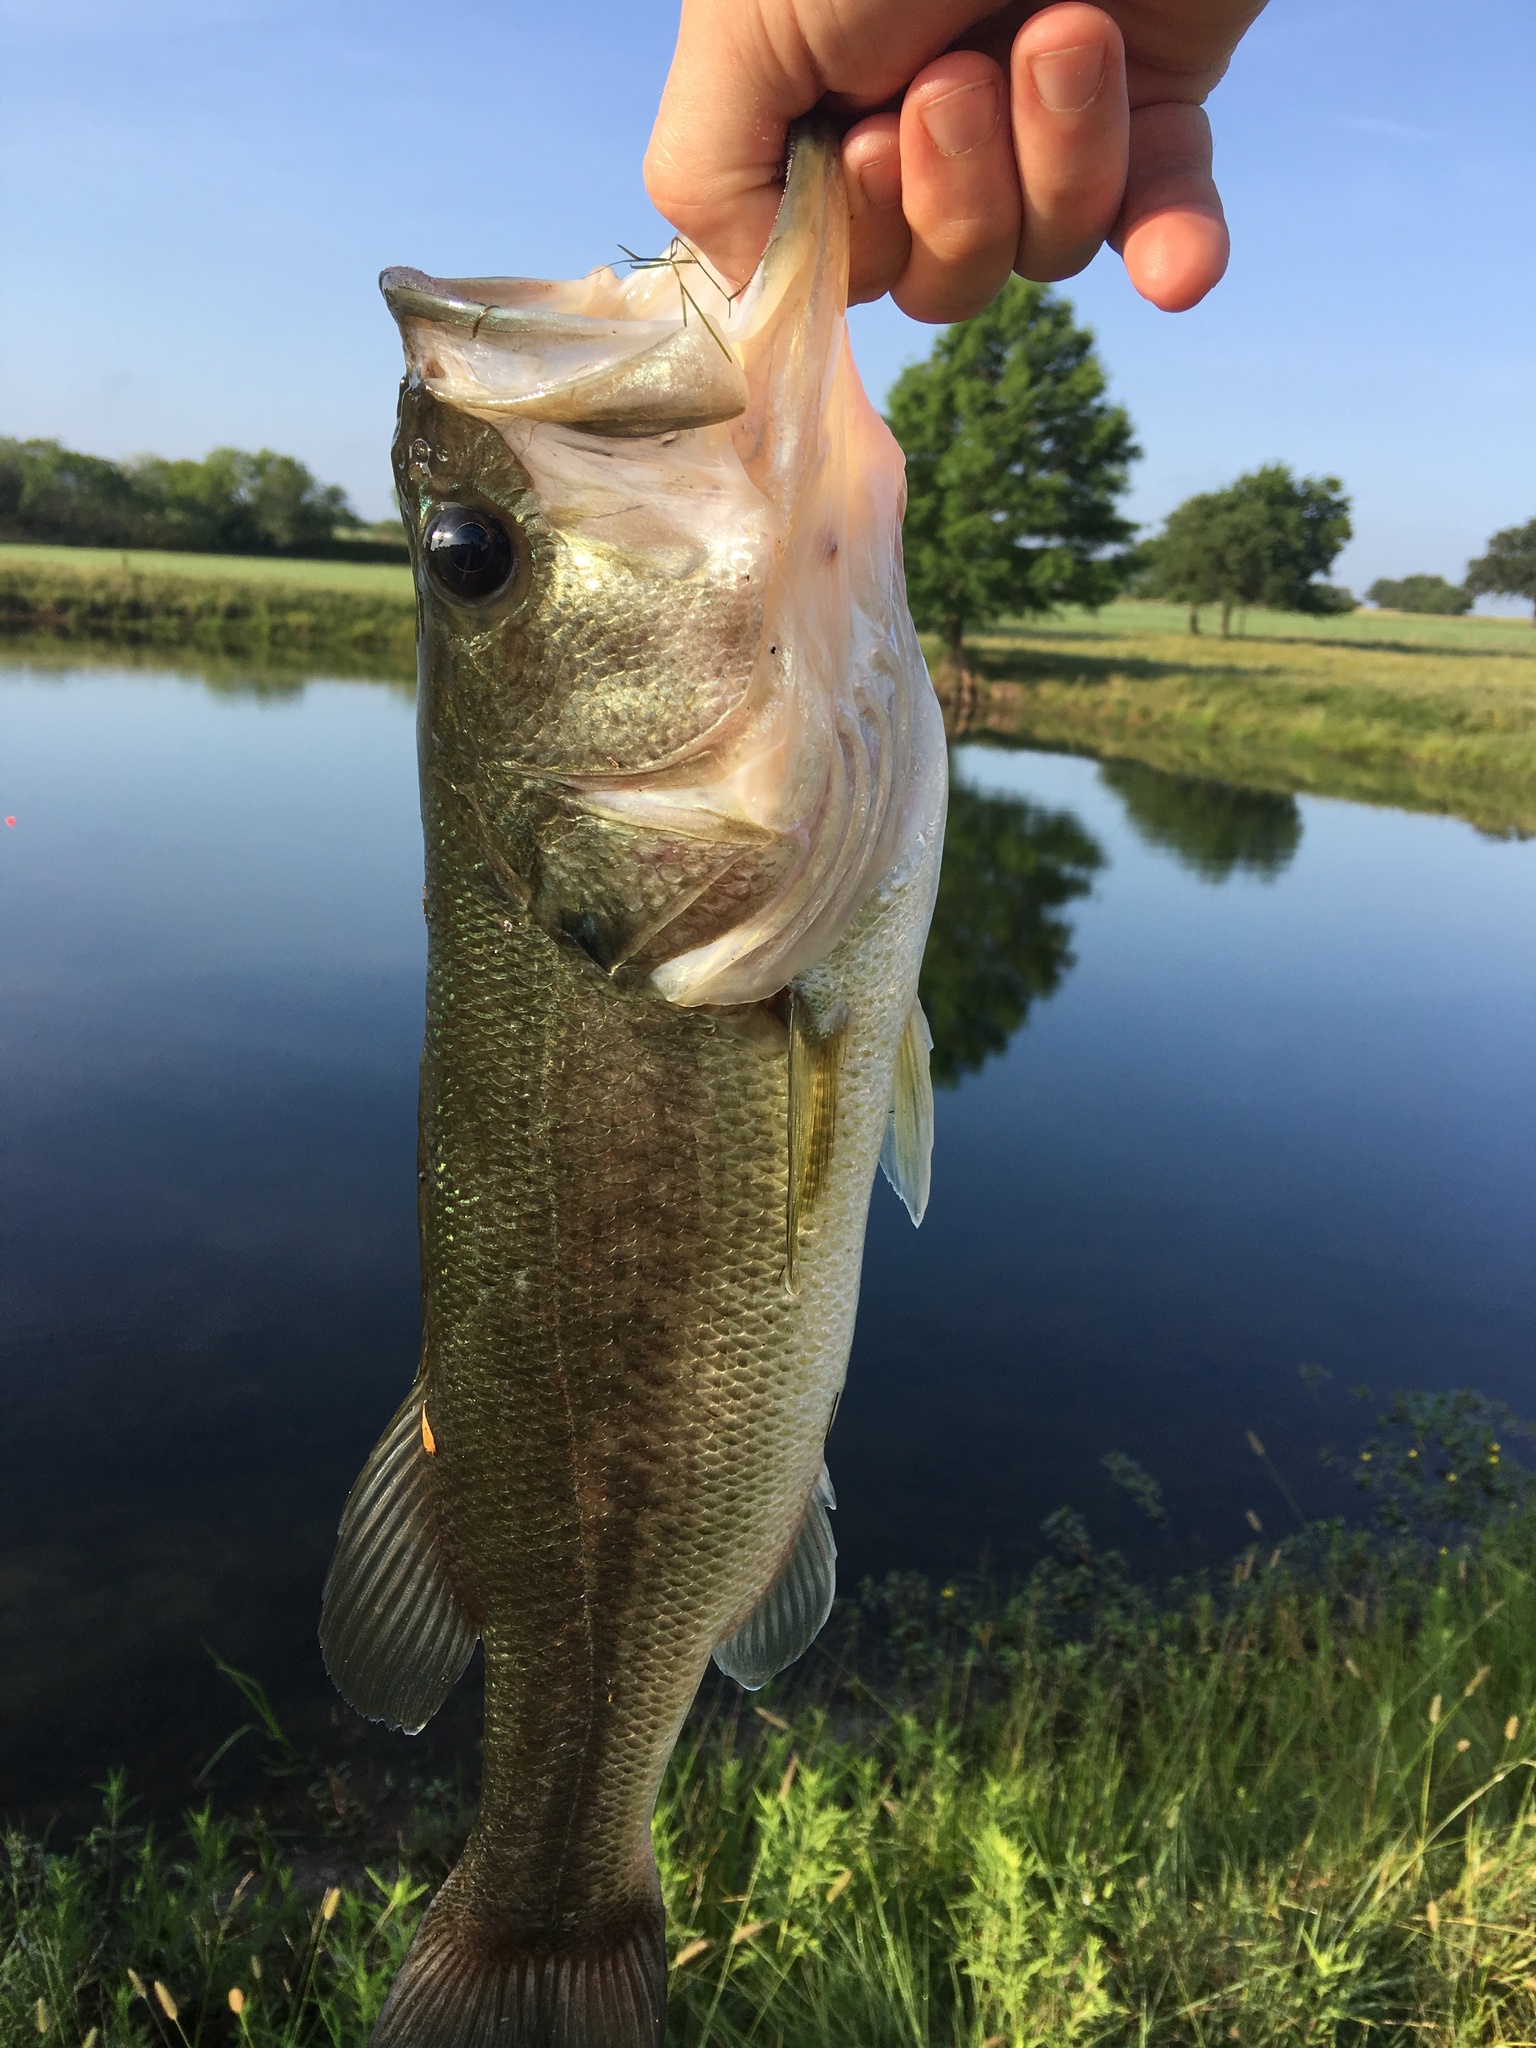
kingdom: Animalia
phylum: Chordata
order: Perciformes
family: Centrarchidae
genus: Micropterus
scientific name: Micropterus
